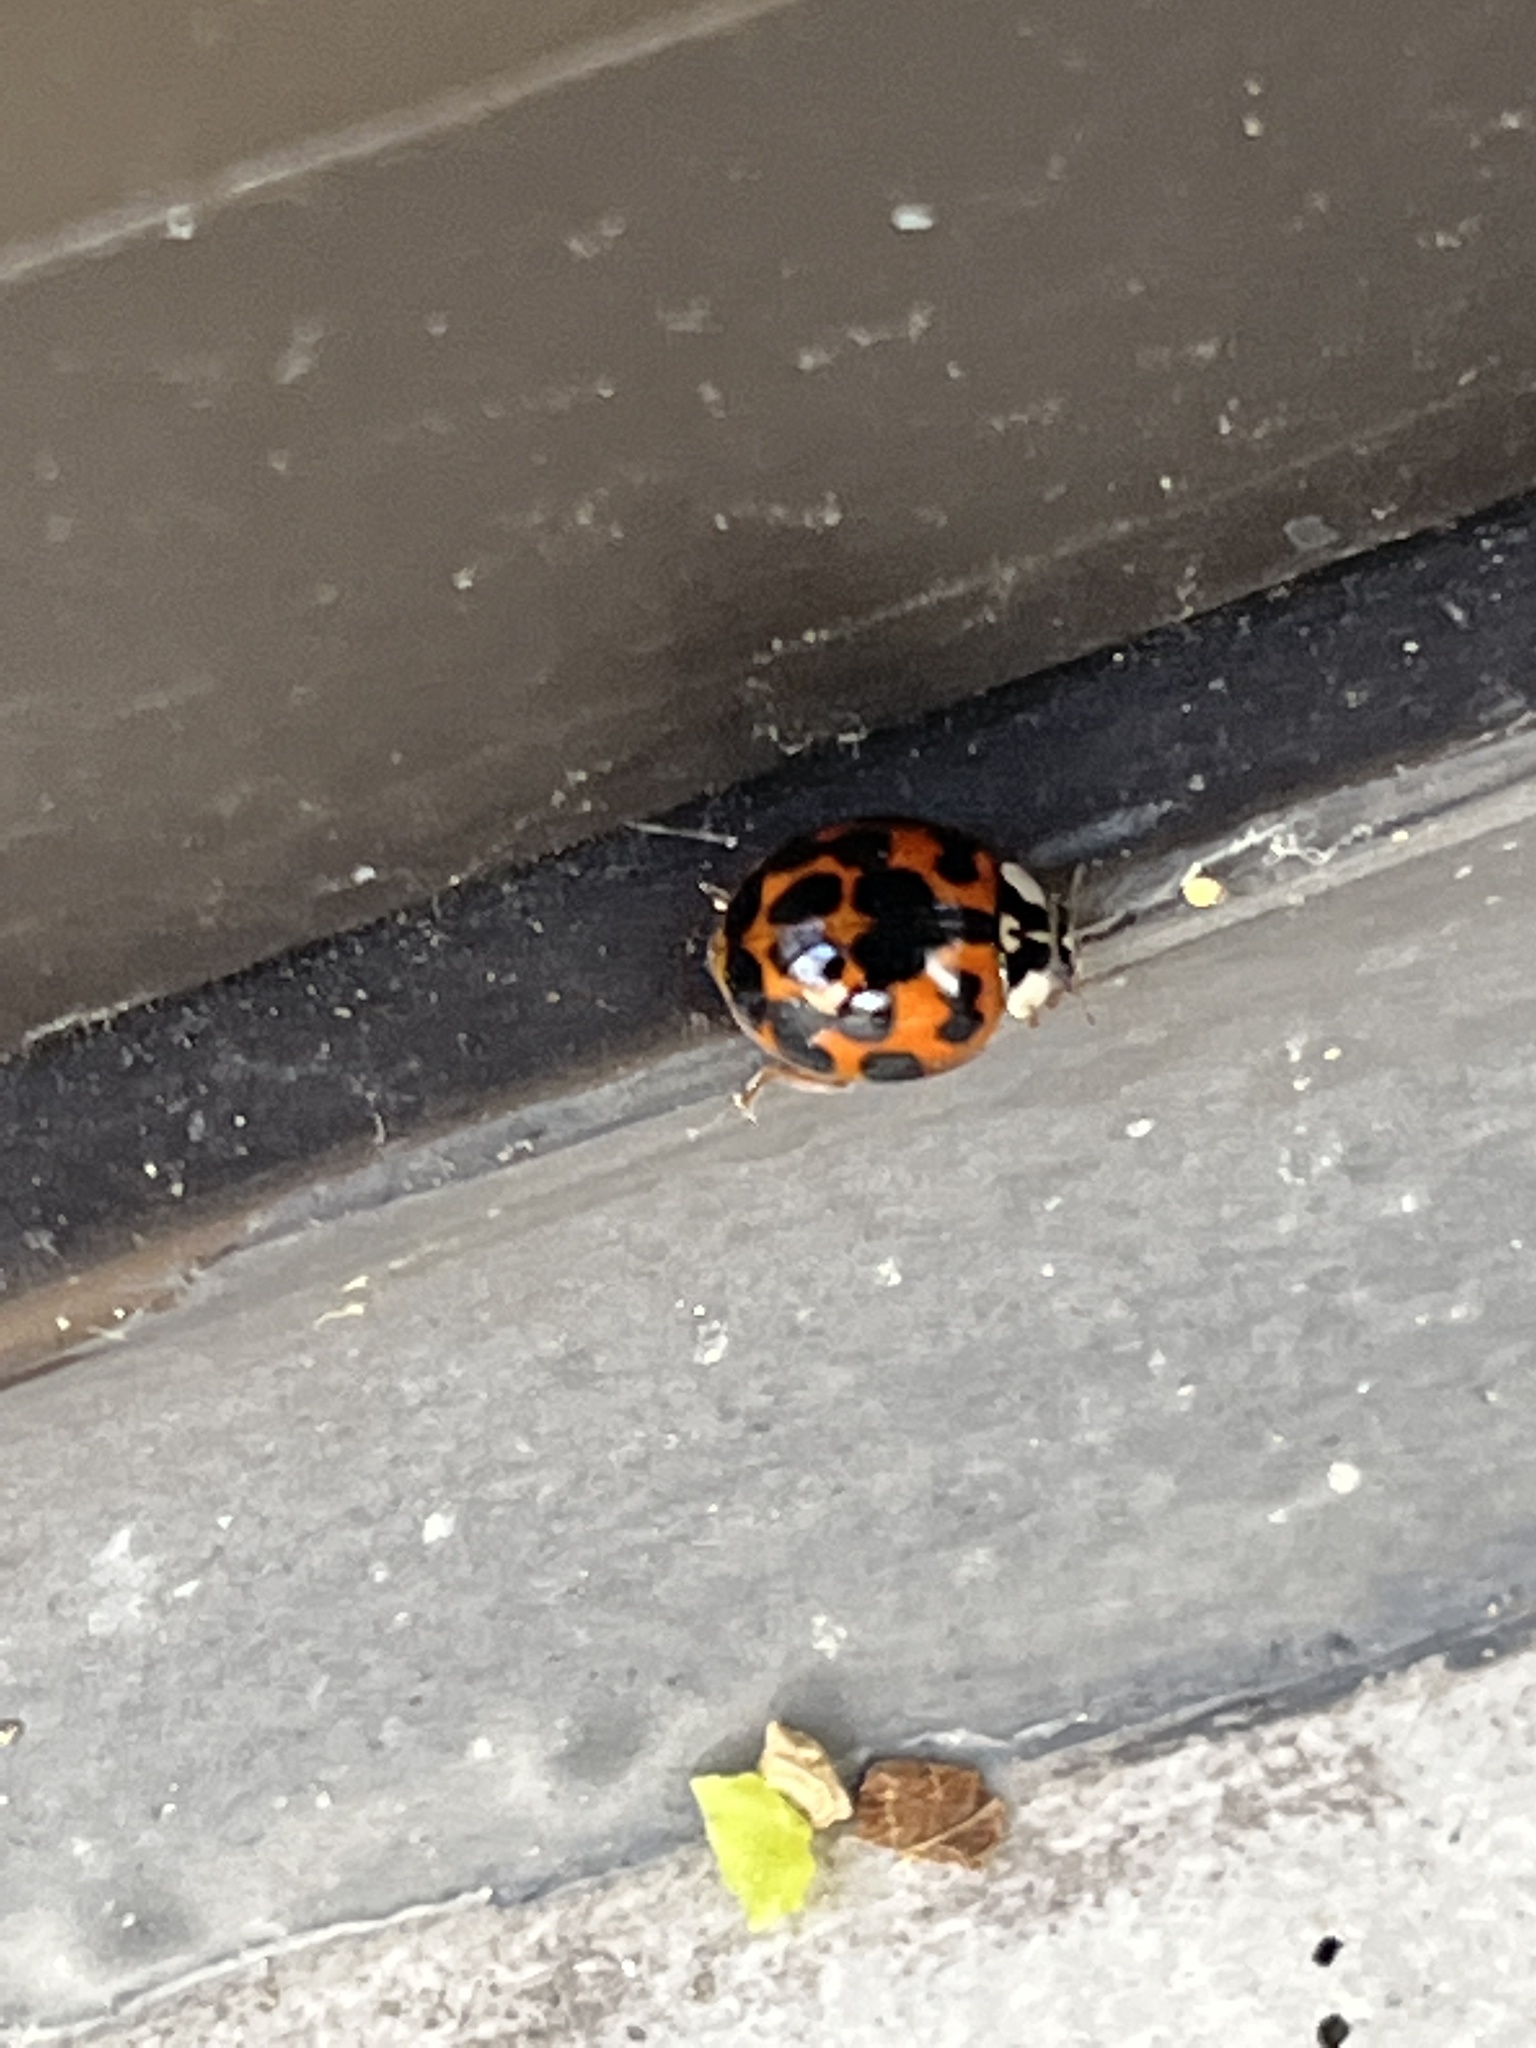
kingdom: Animalia
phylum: Arthropoda
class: Insecta
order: Coleoptera
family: Coccinellidae
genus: Harmonia
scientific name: Harmonia axyridis
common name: Harlequin ladybird
